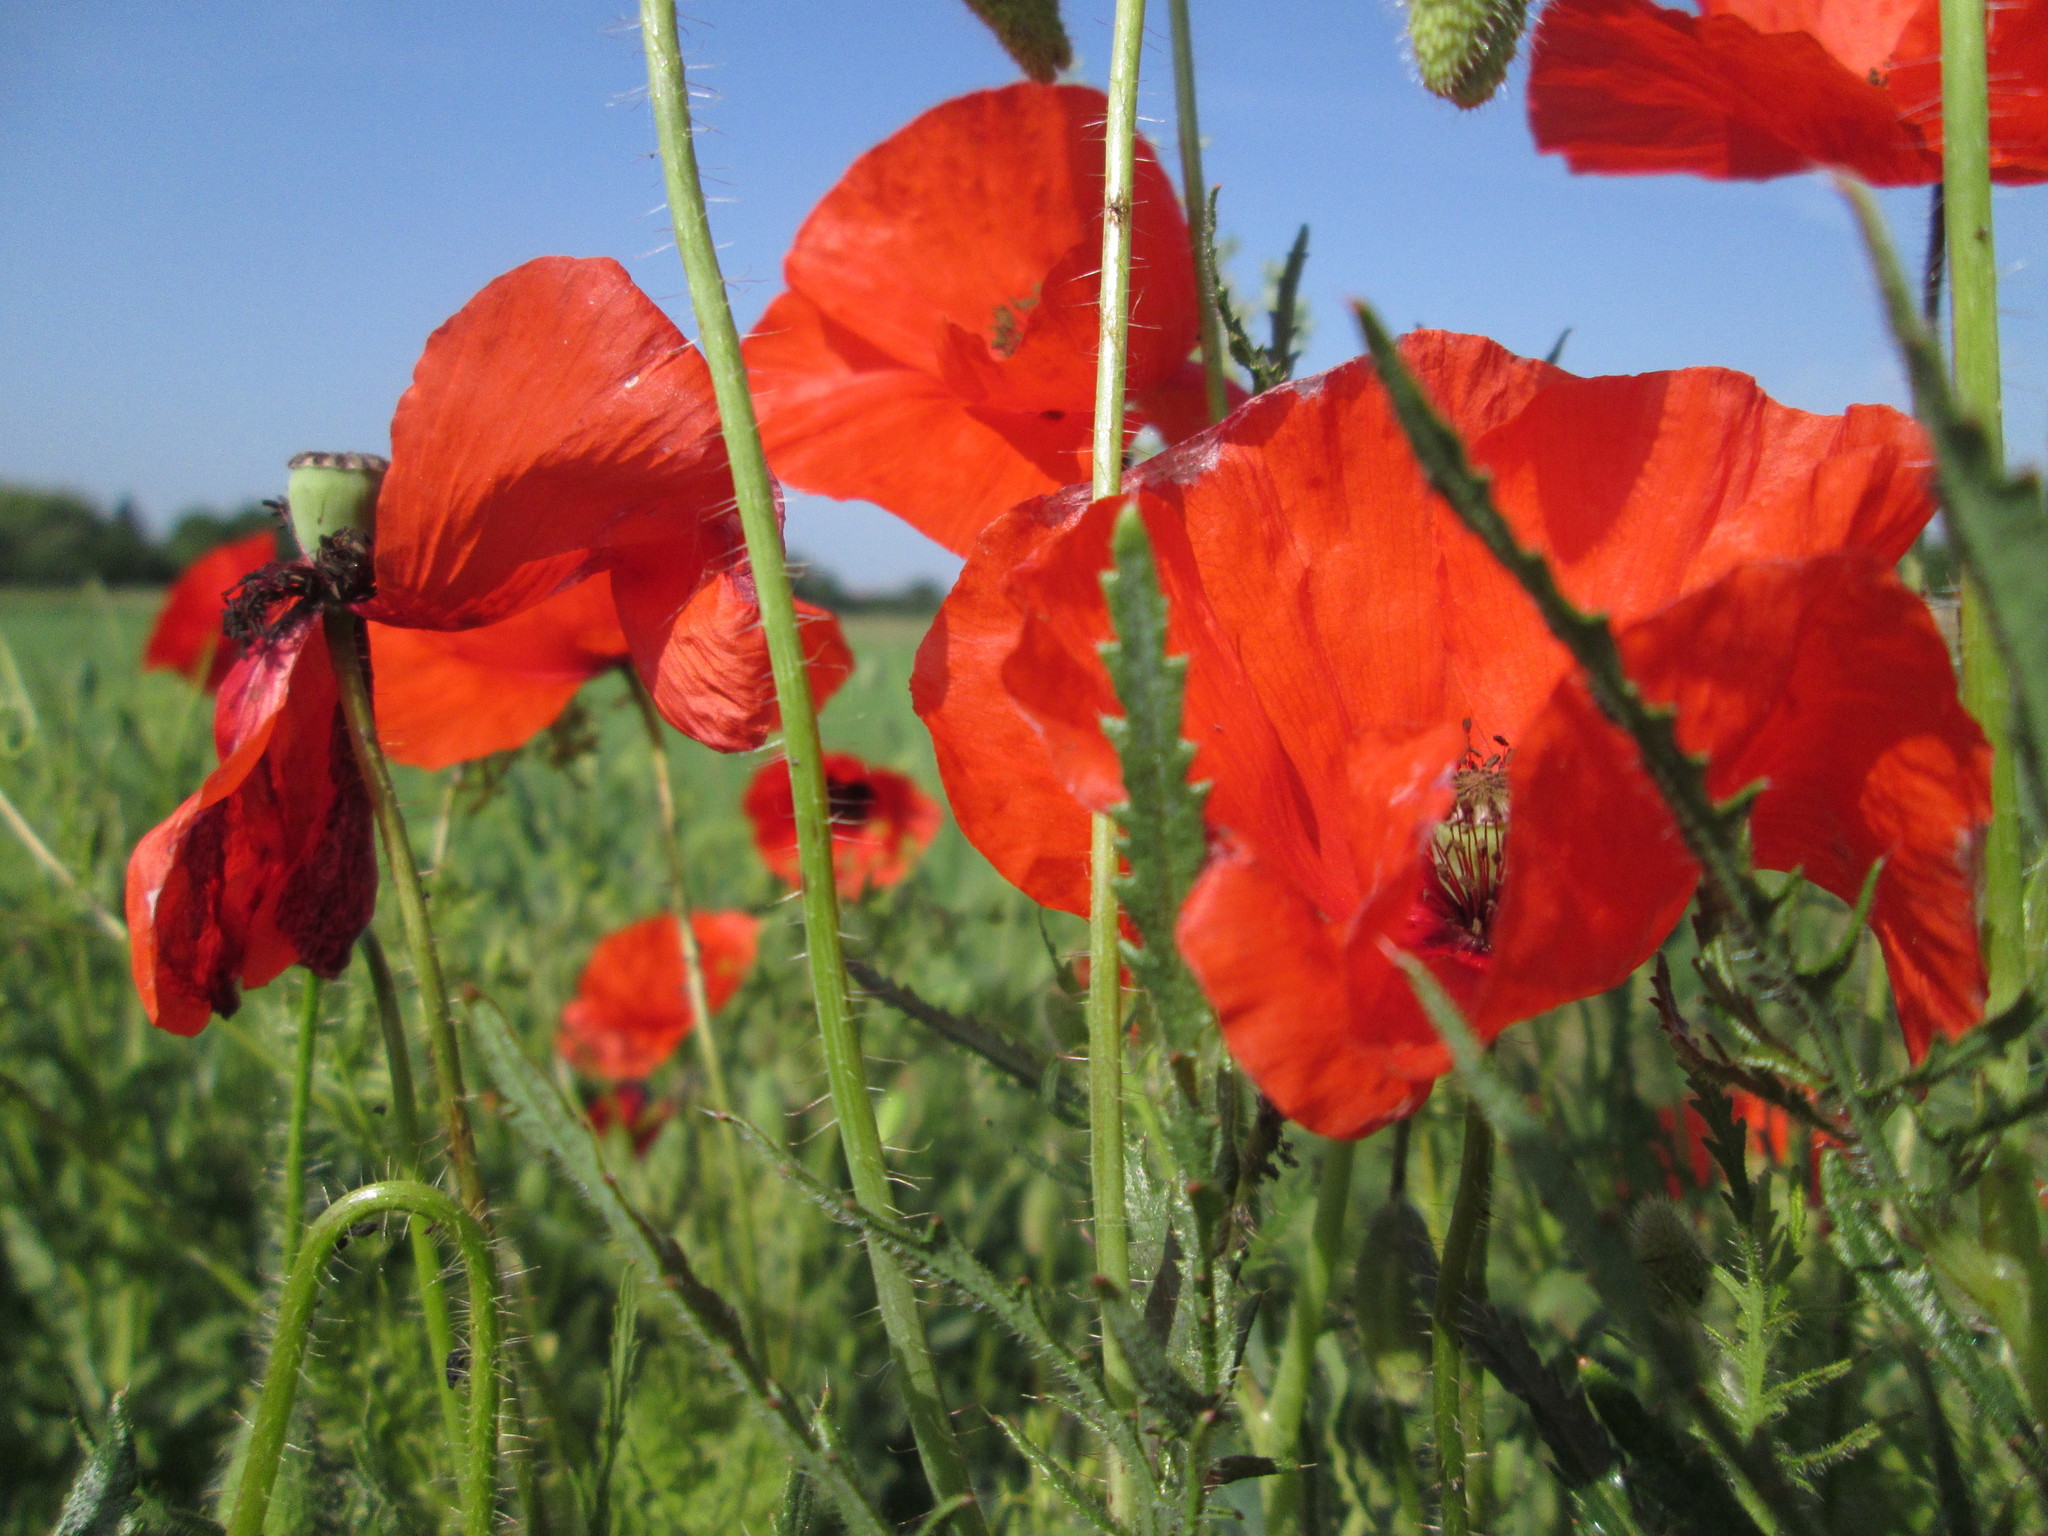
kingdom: Plantae
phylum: Tracheophyta
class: Magnoliopsida
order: Ranunculales
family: Papaveraceae
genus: Papaver
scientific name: Papaver rhoeas
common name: Corn poppy
